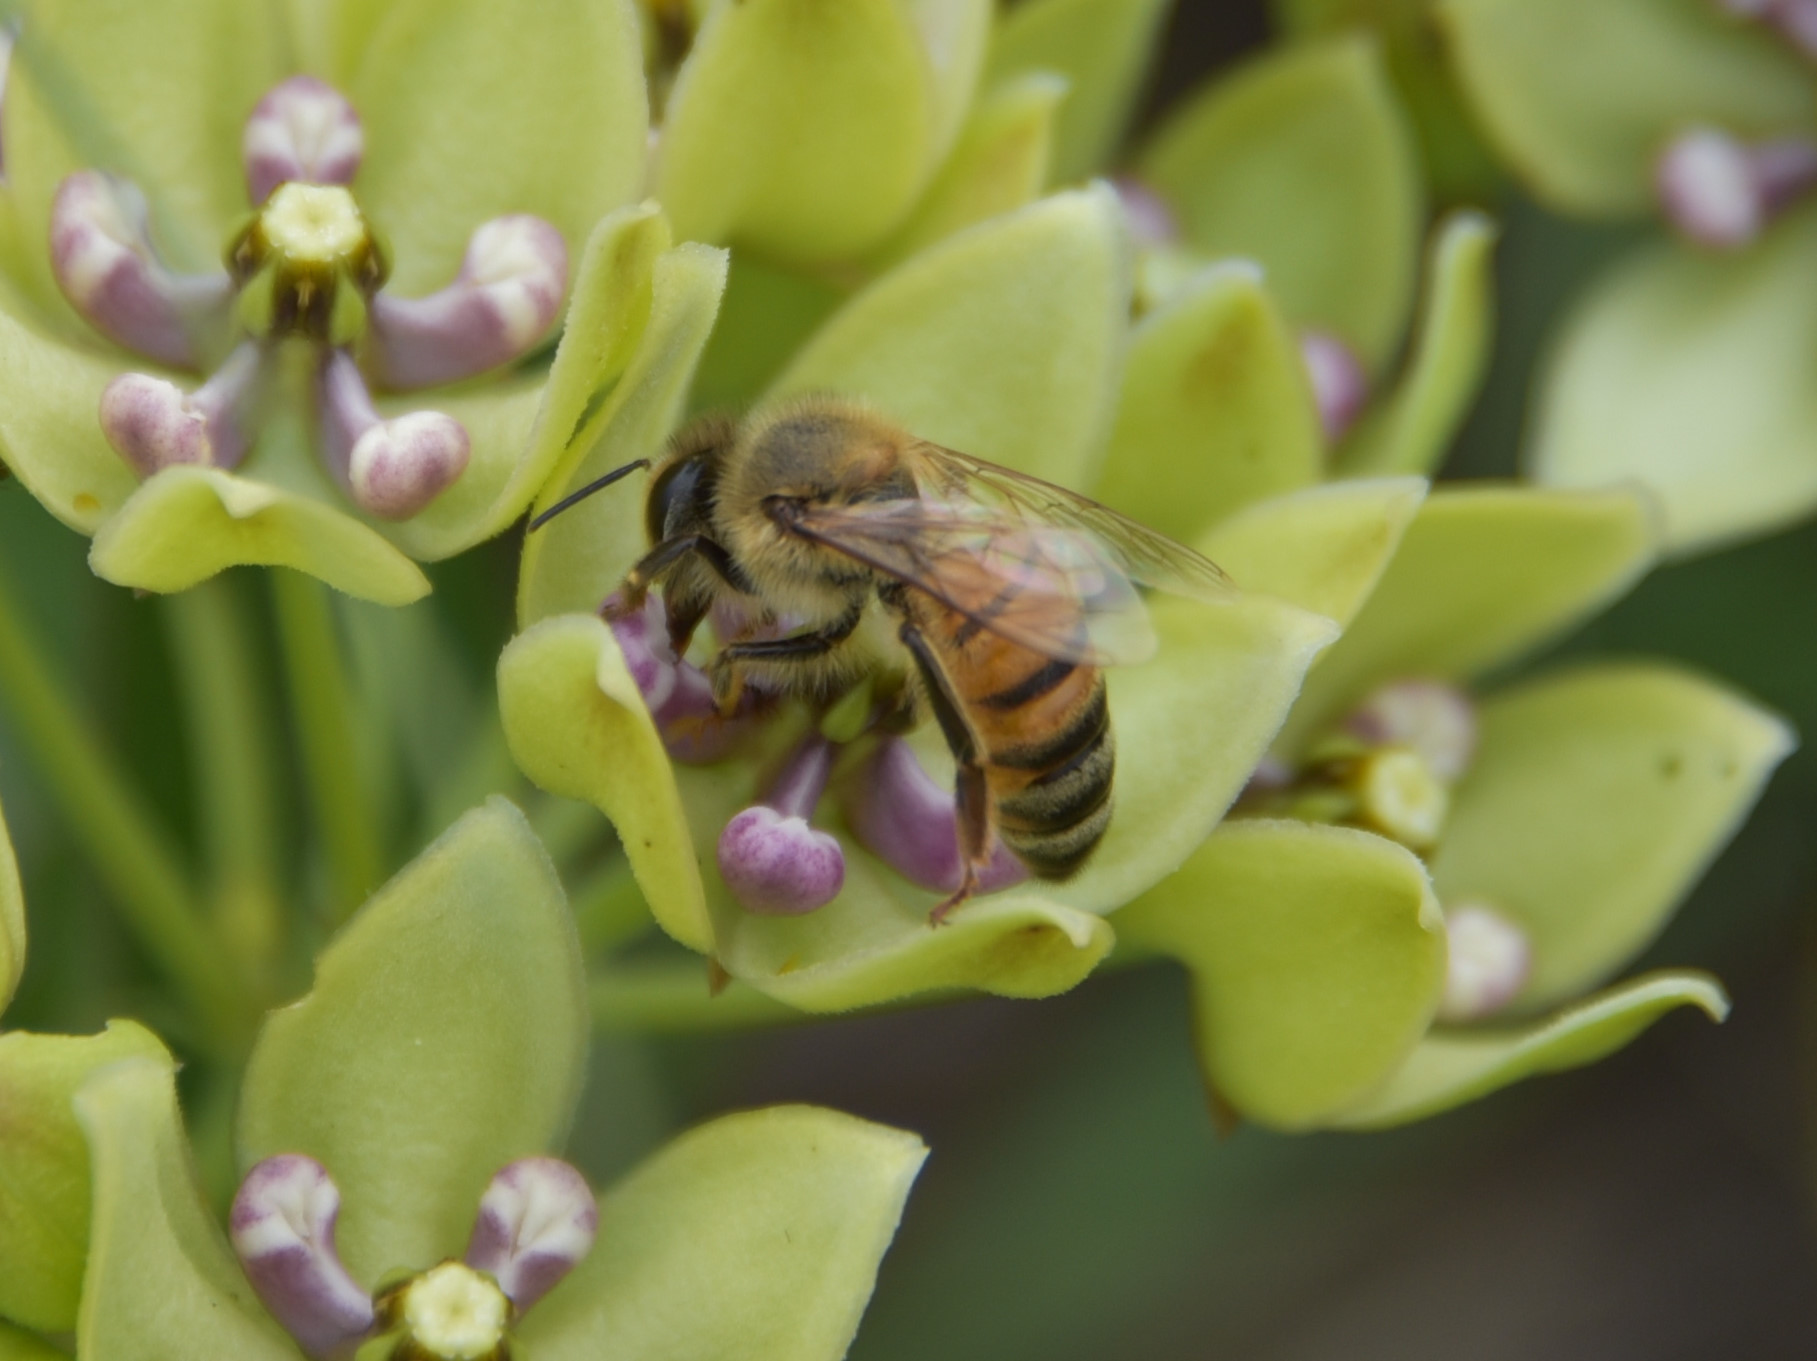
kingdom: Animalia
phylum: Arthropoda
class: Insecta
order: Hymenoptera
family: Apidae
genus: Apis
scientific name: Apis mellifera
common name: Honey bee
